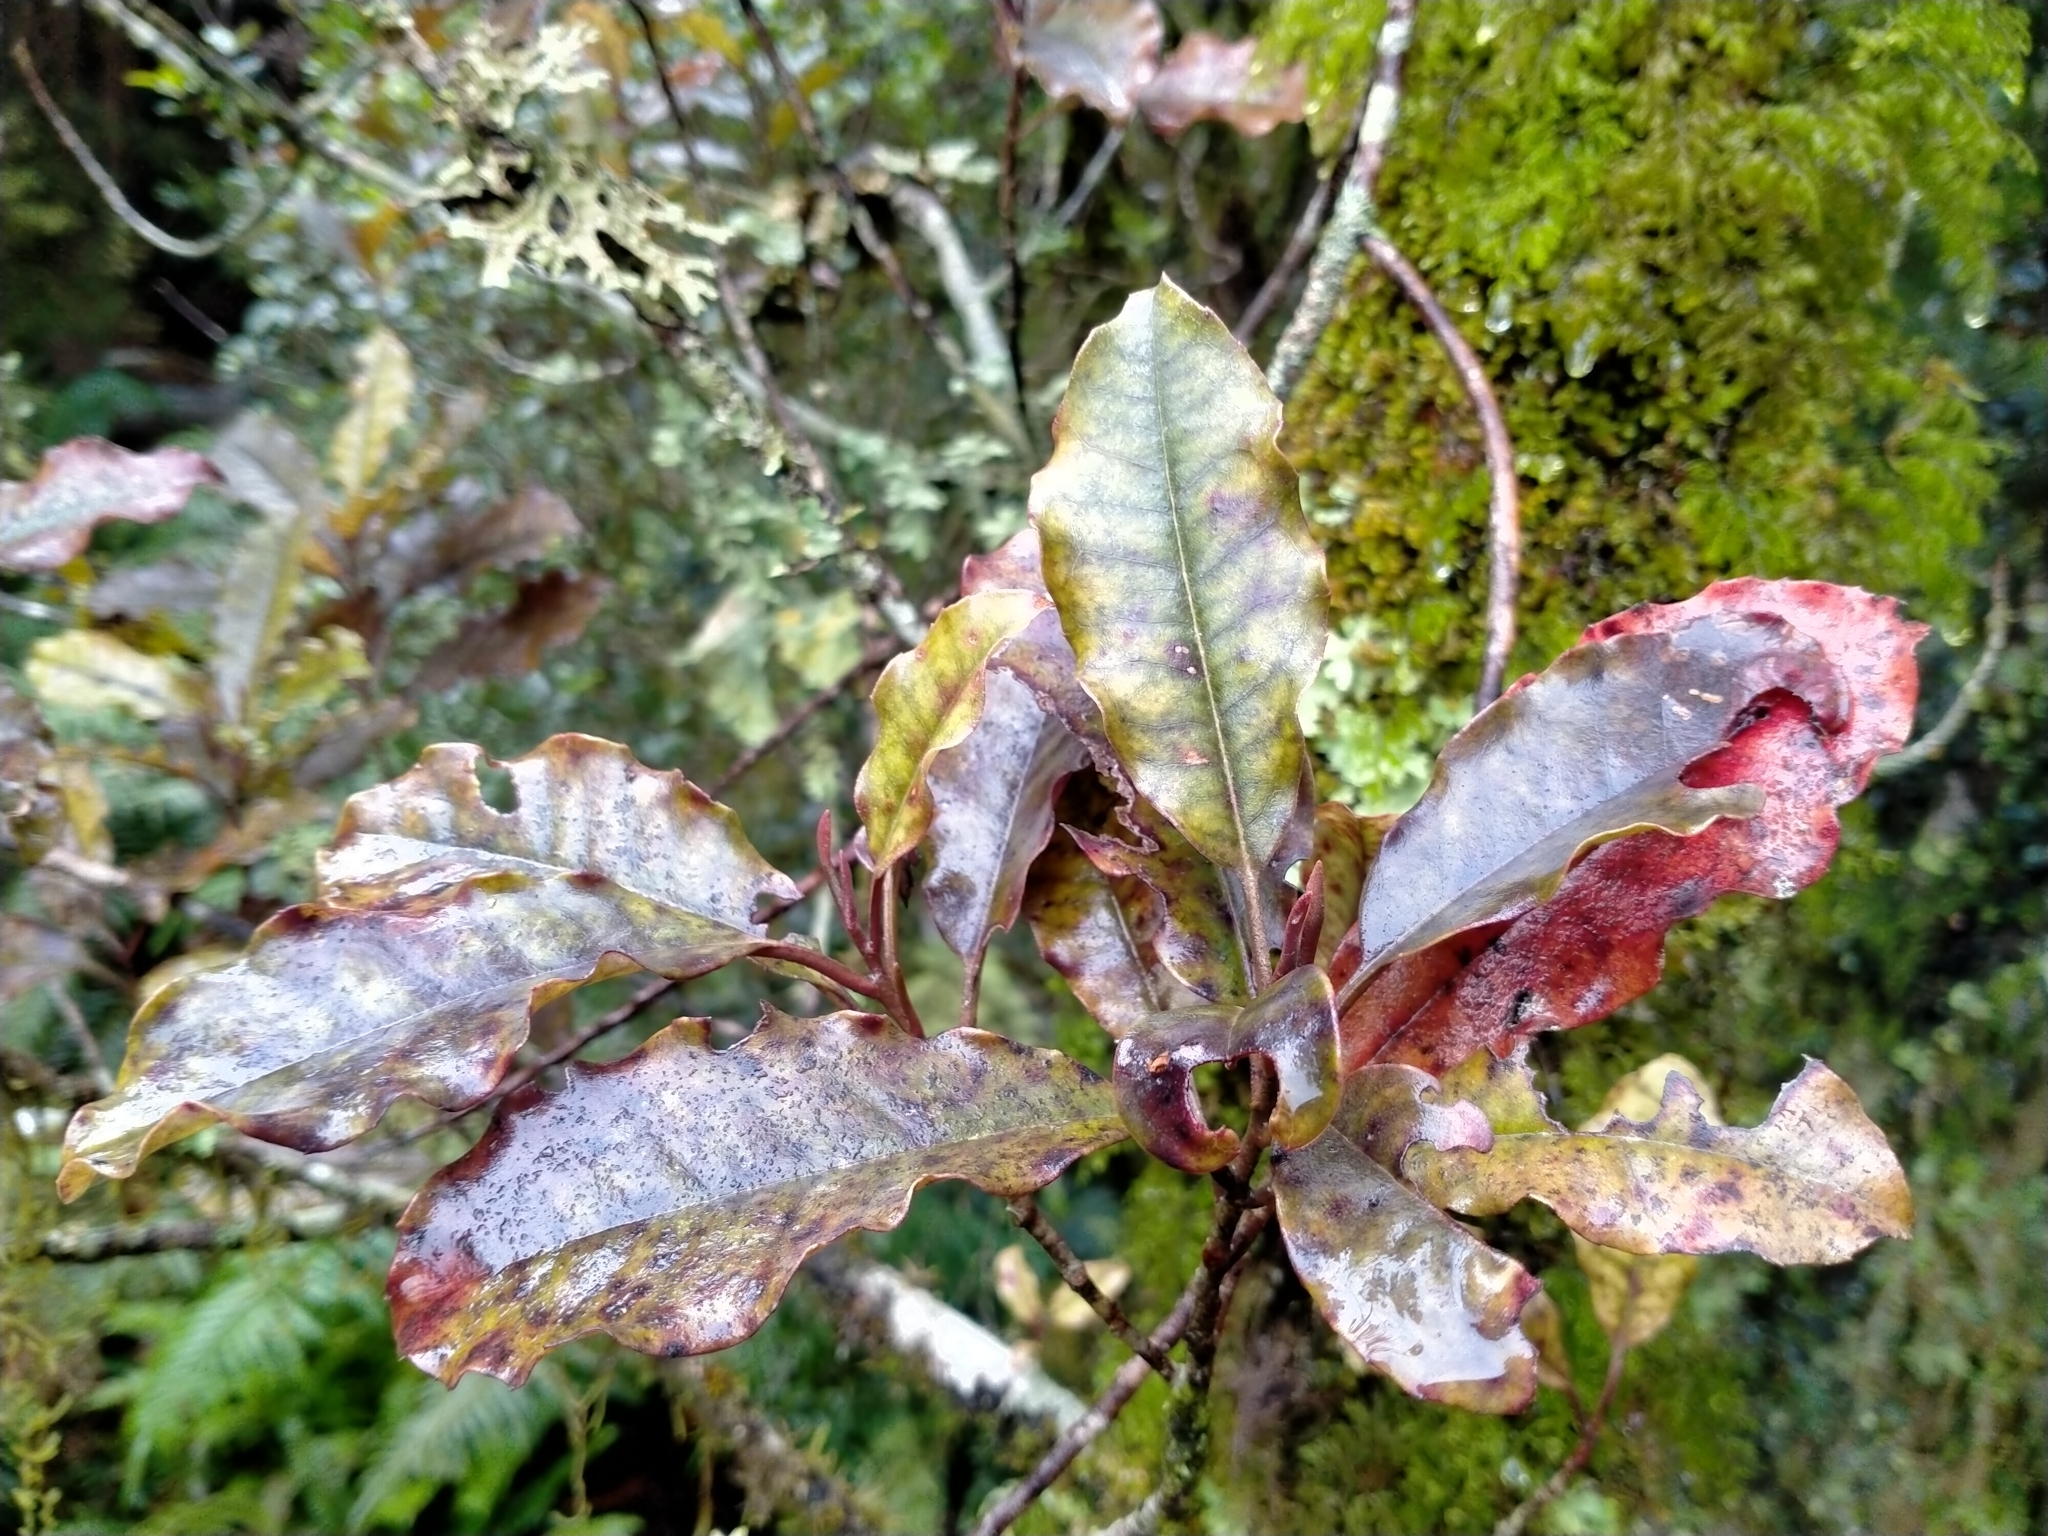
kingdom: Plantae
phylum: Tracheophyta
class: Magnoliopsida
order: Paracryphiales
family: Paracryphiaceae
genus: Quintinia
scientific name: Quintinia serrata
